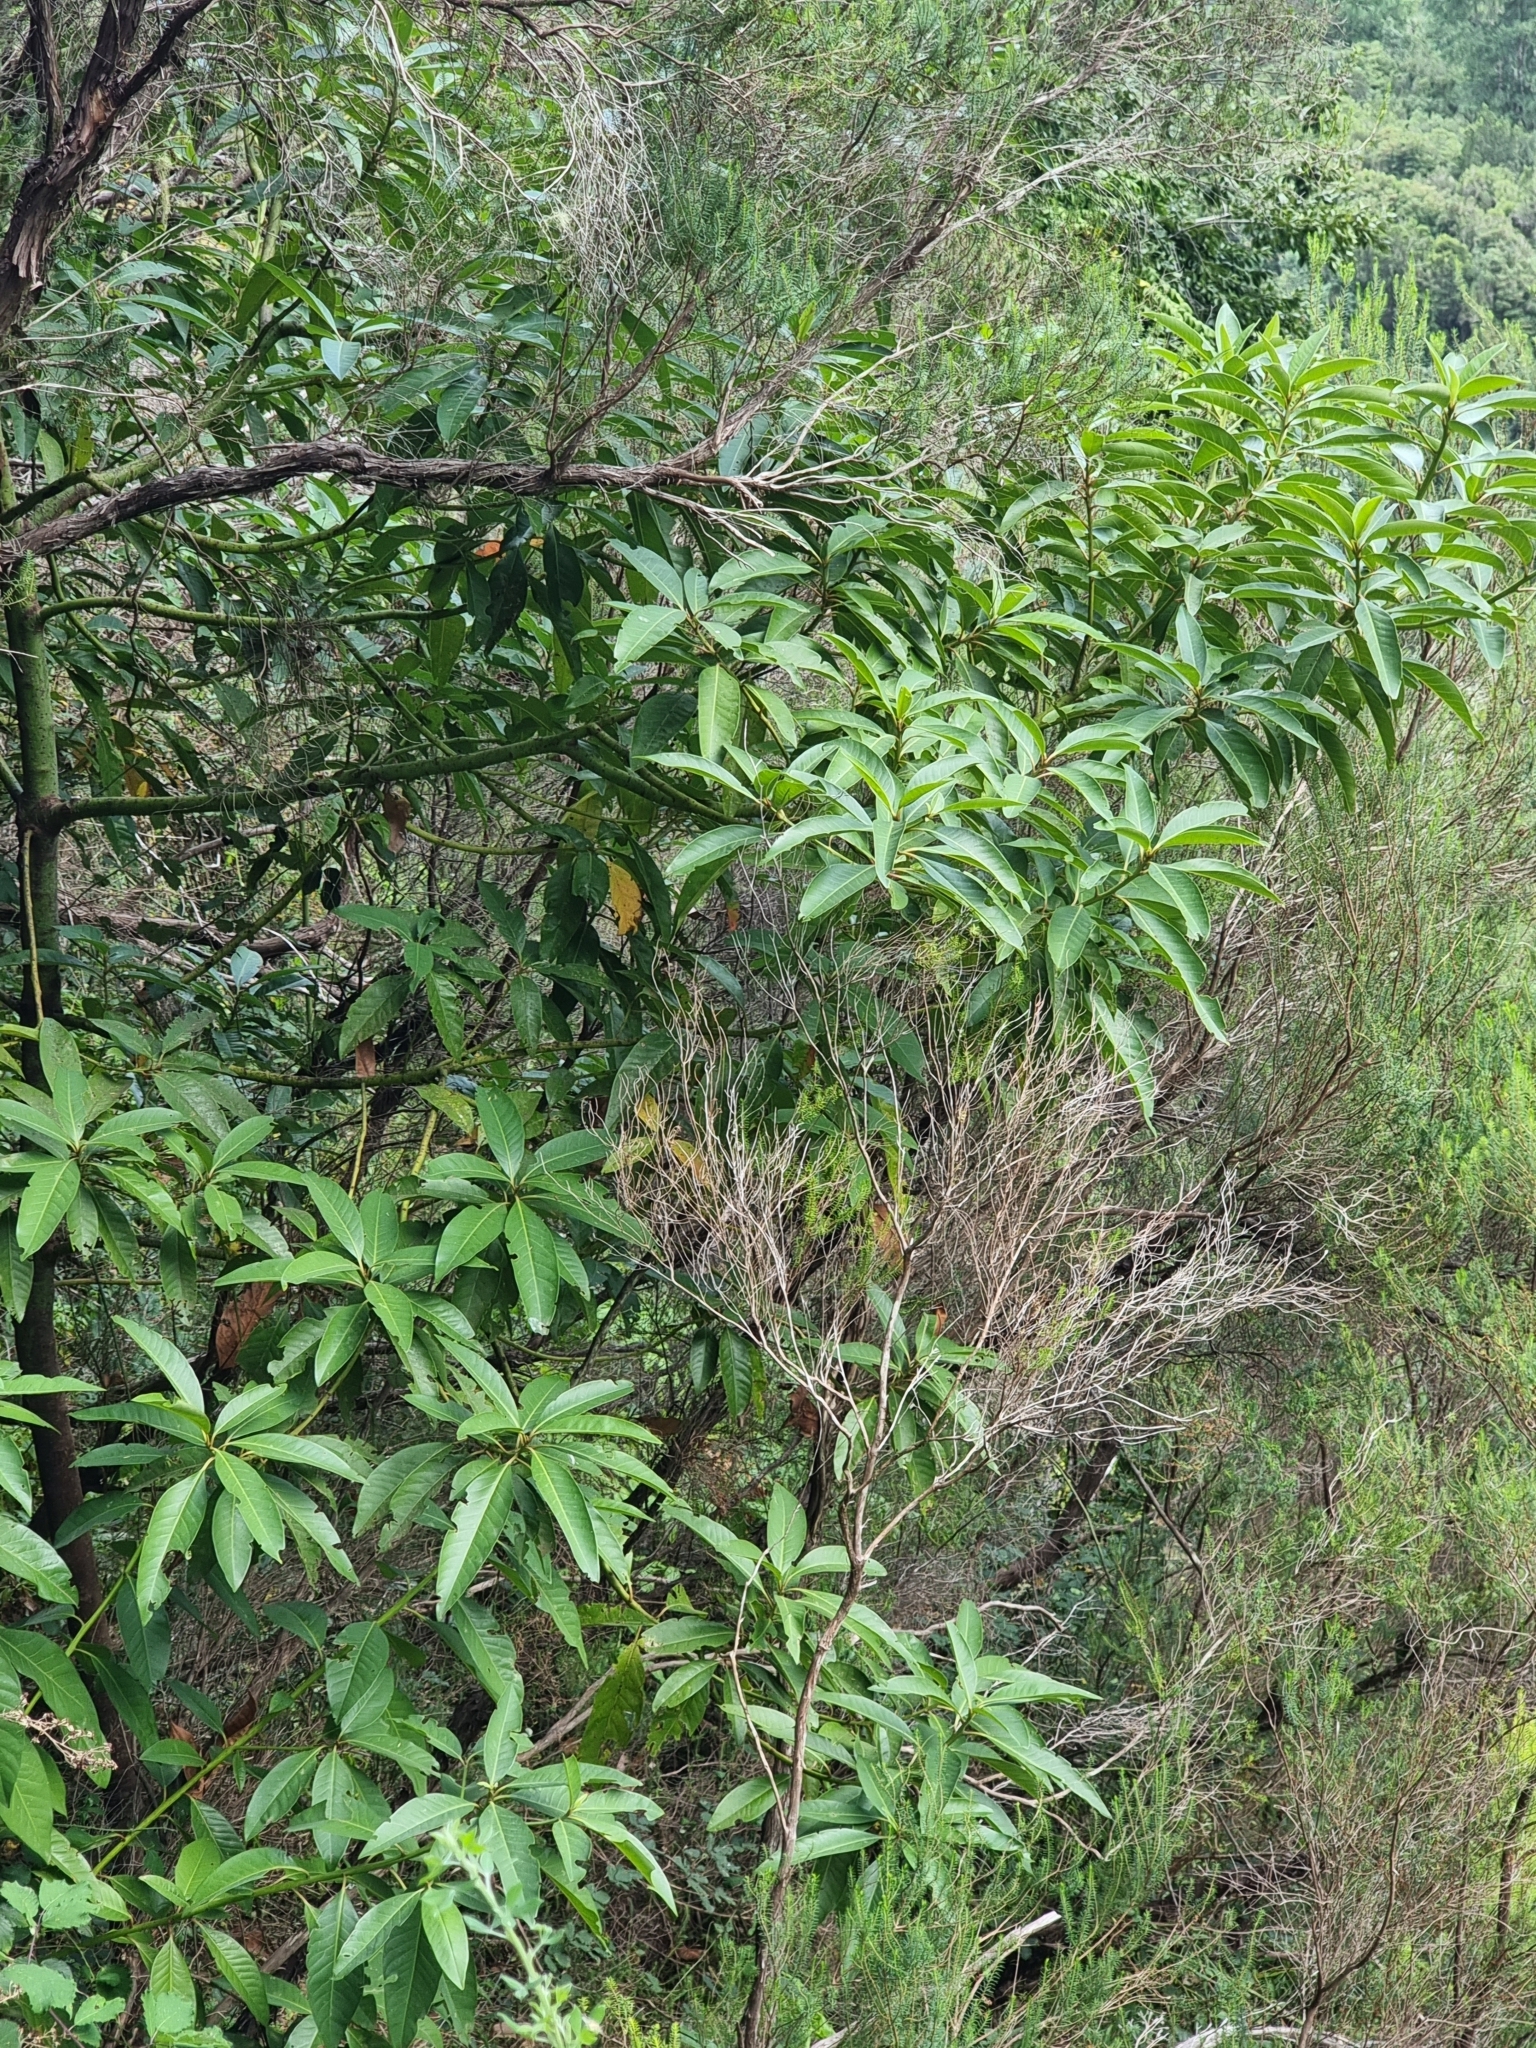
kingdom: Plantae
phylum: Tracheophyta
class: Magnoliopsida
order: Laurales
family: Lauraceae
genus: Persea
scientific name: Persea indica
